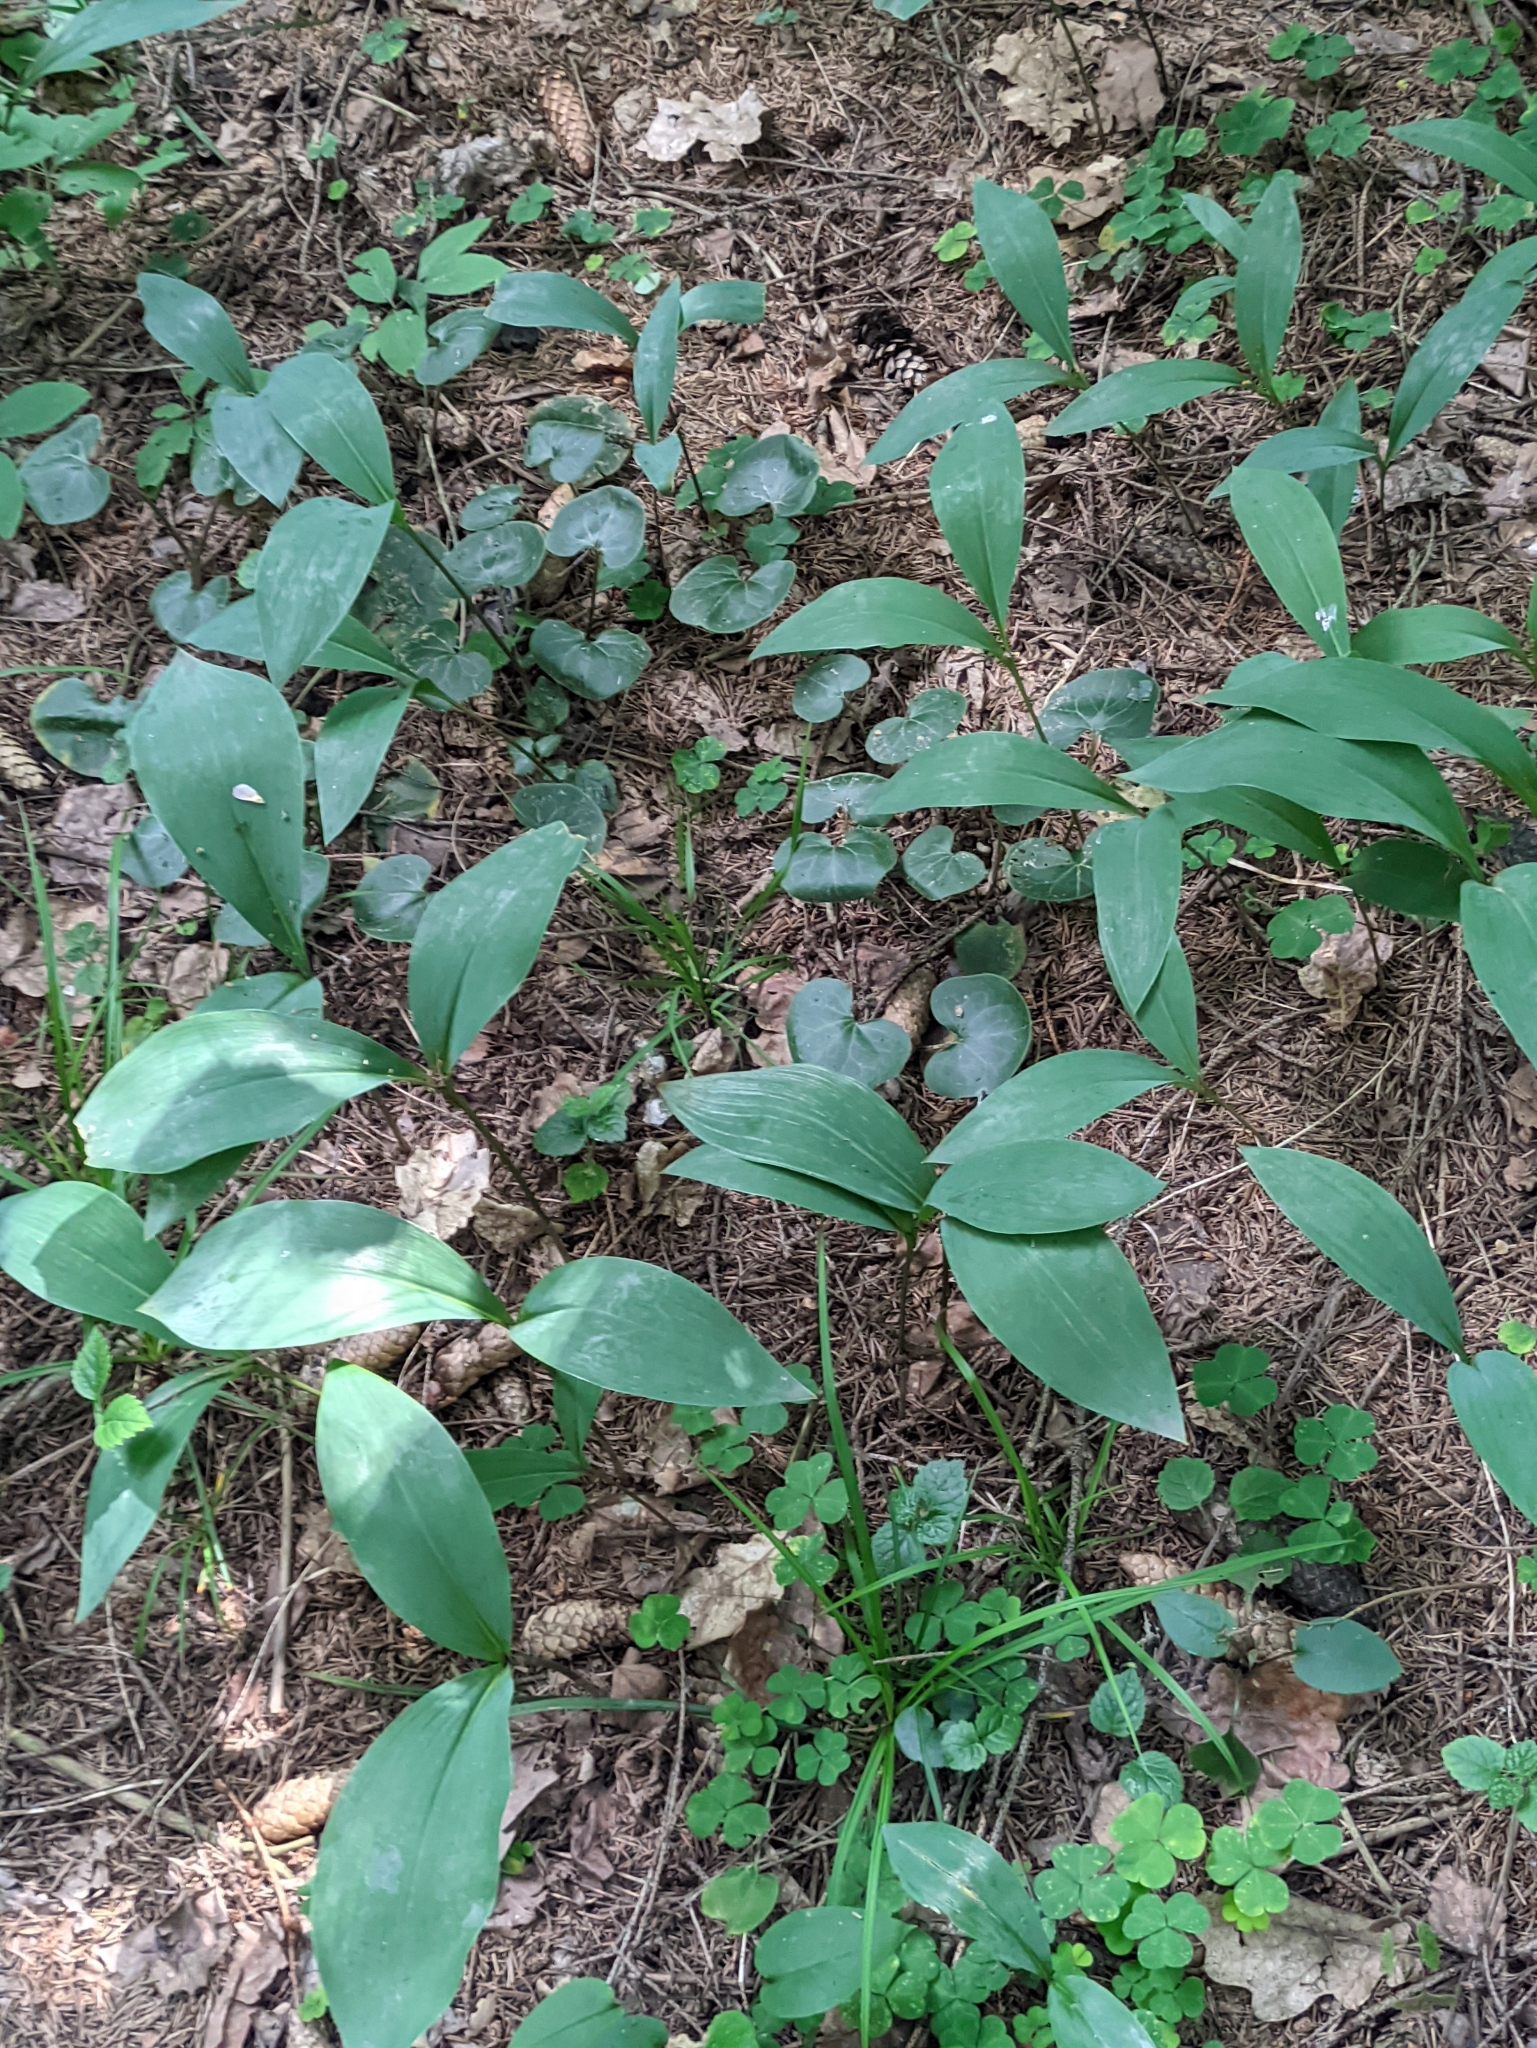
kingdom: Plantae
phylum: Tracheophyta
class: Liliopsida
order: Asparagales
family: Asparagaceae
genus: Convallaria
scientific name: Convallaria majalis
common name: Lily-of-the-valley
